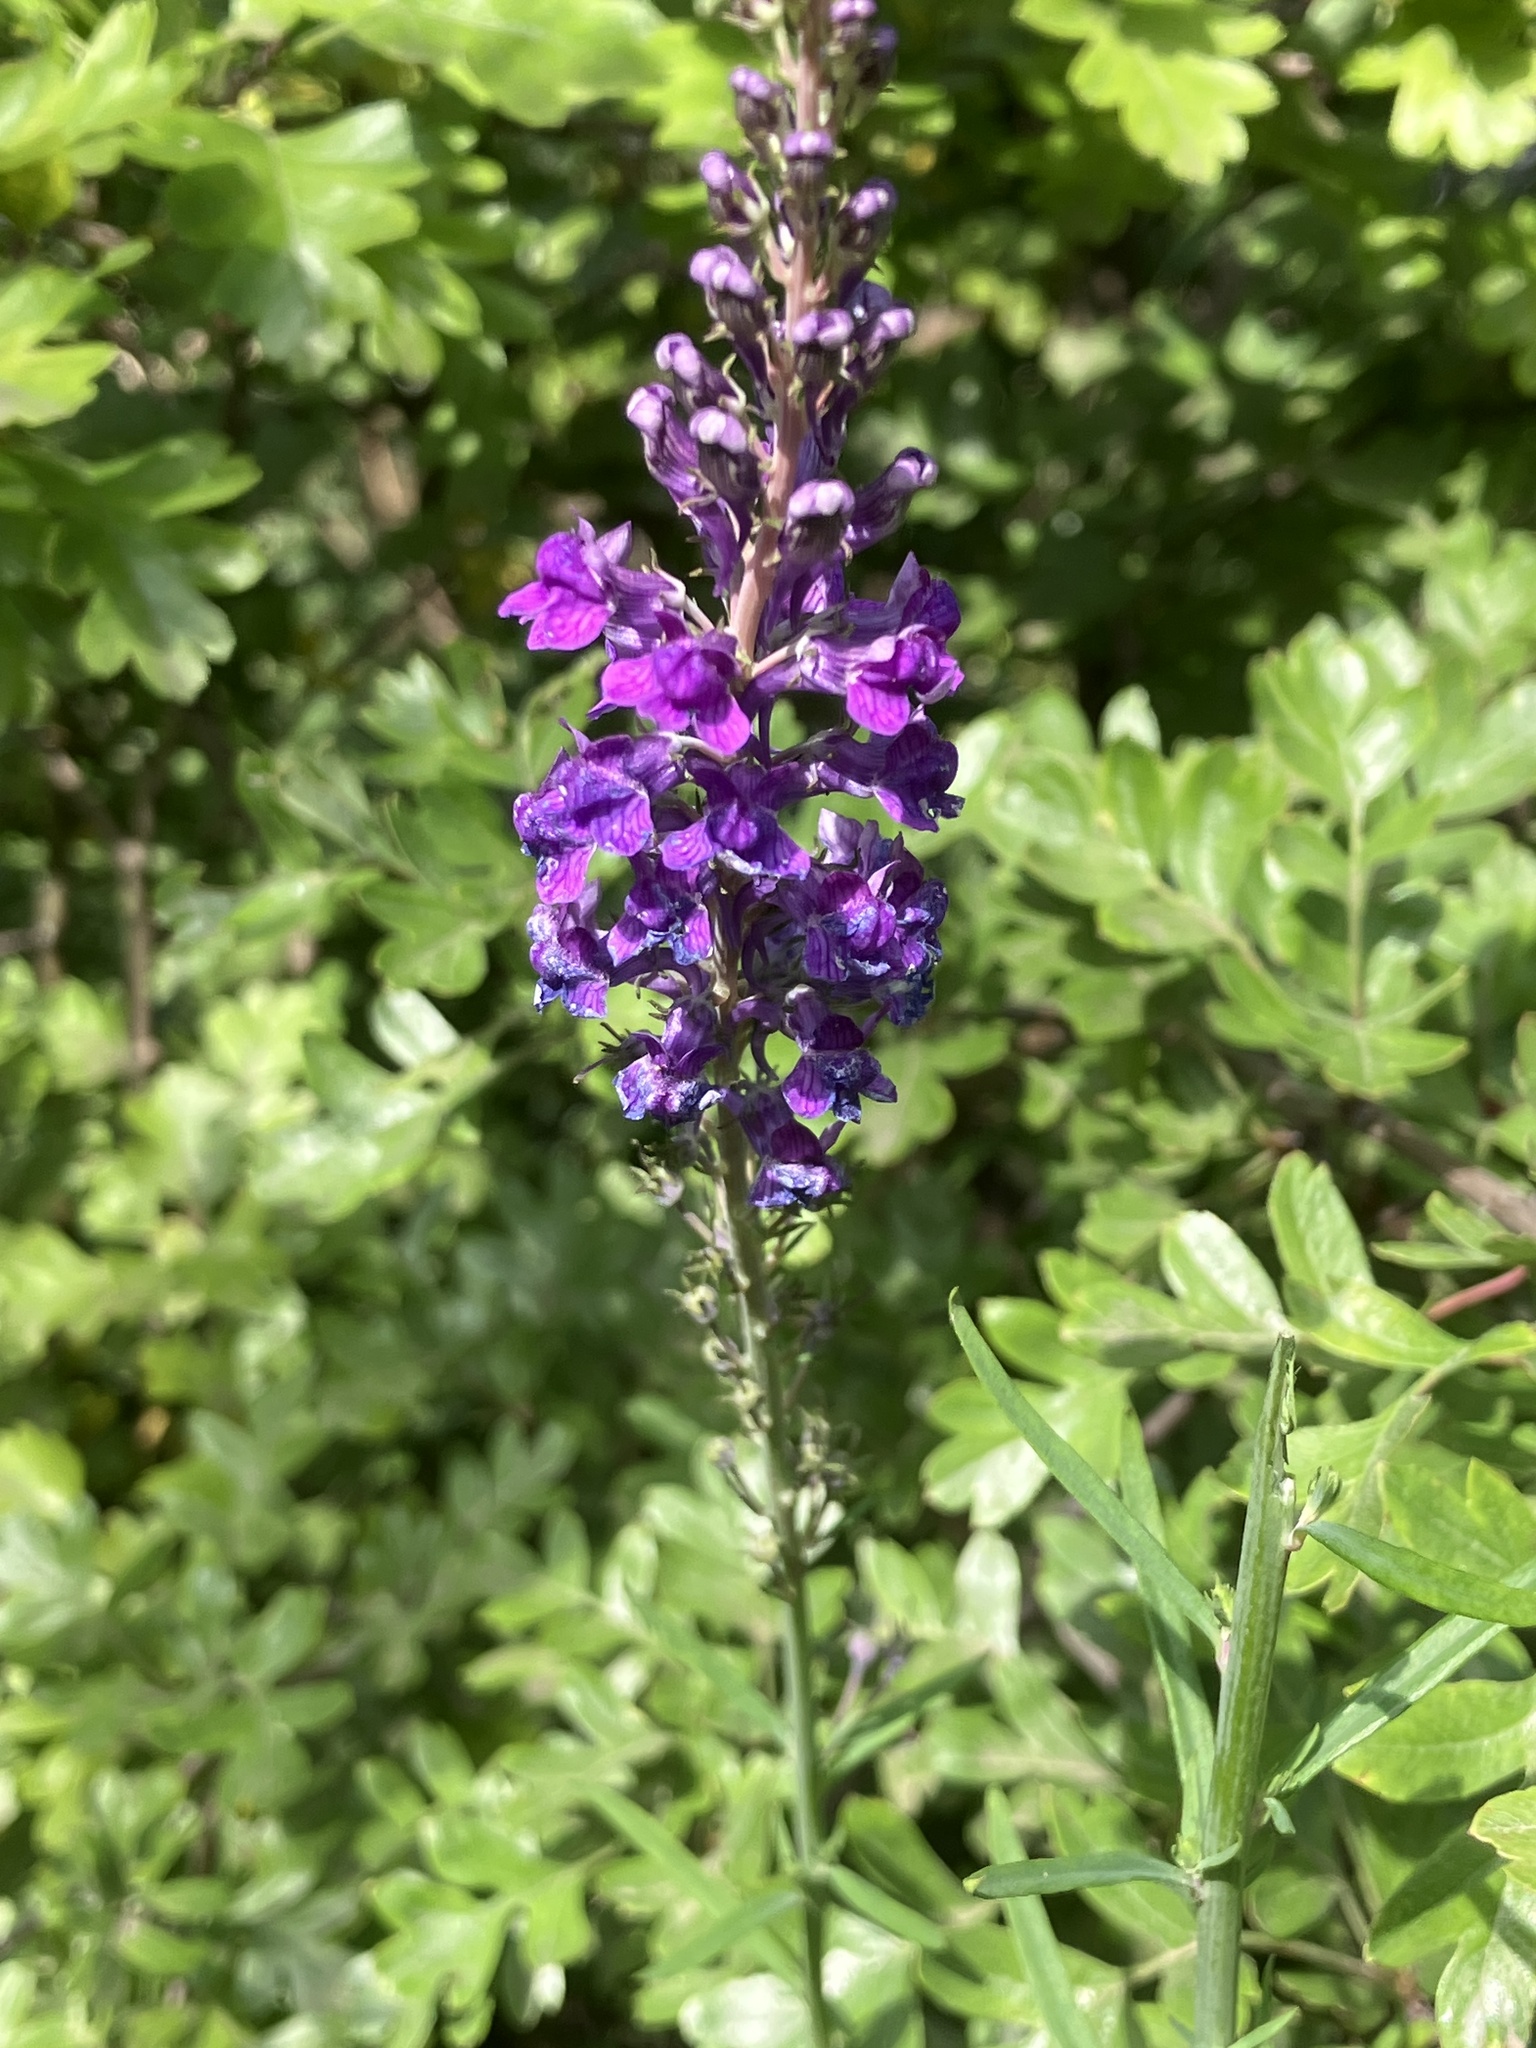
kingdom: Plantae
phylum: Tracheophyta
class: Magnoliopsida
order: Lamiales
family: Plantaginaceae
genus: Linaria
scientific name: Linaria purpurea
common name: Purple toadflax
